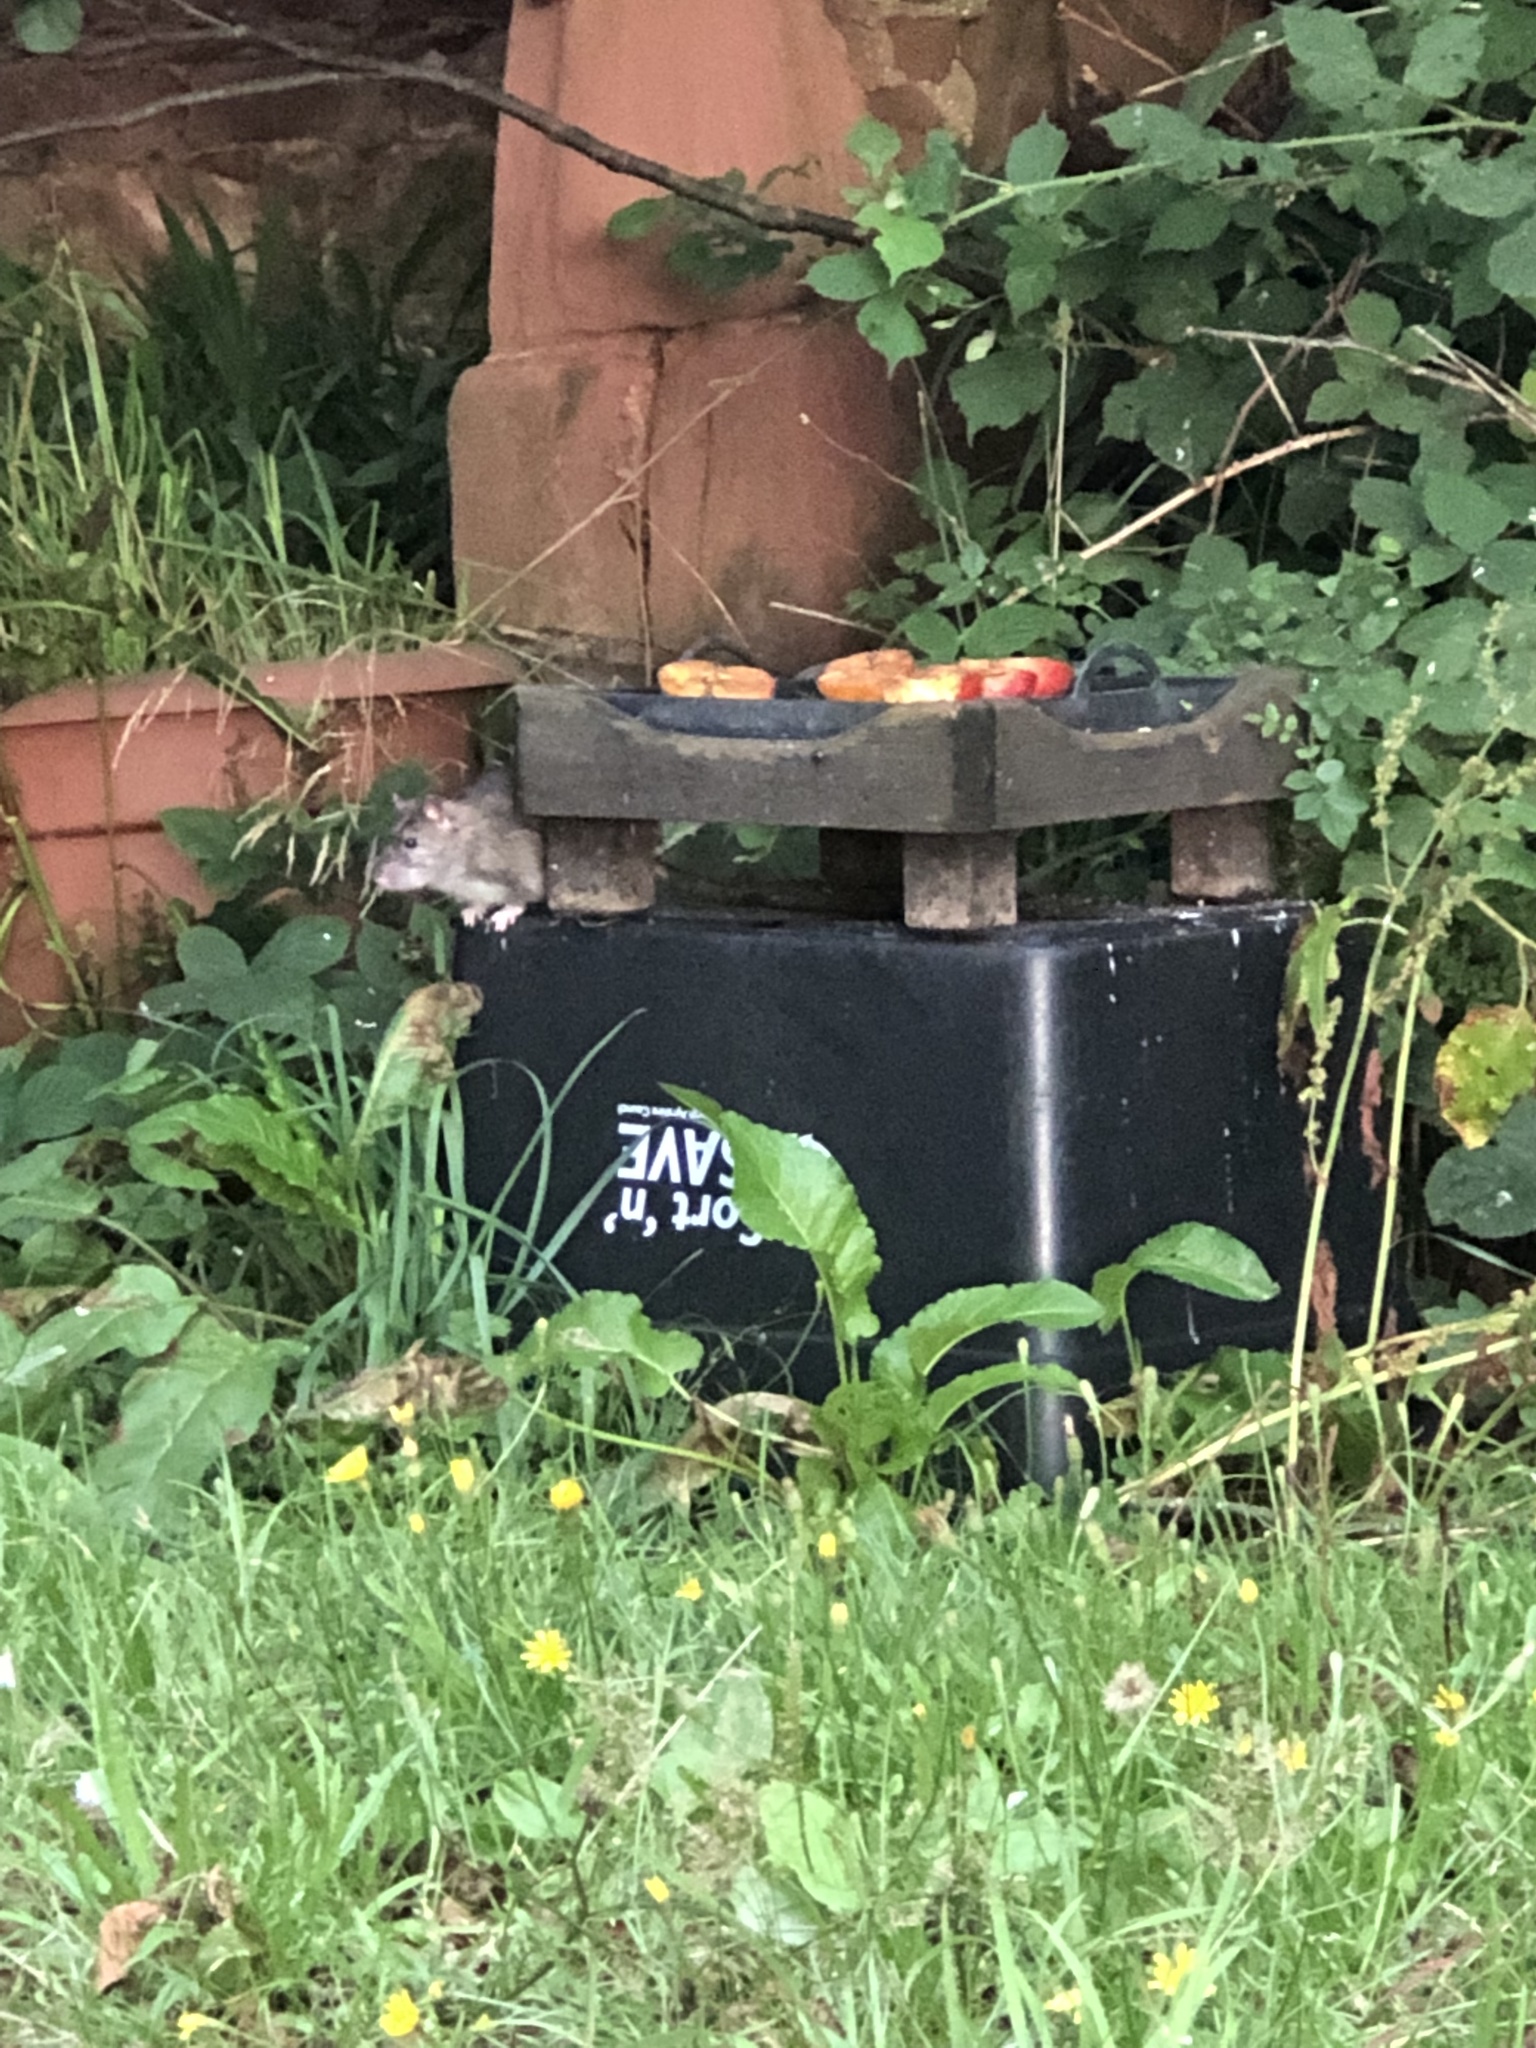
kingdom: Animalia
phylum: Chordata
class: Mammalia
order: Rodentia
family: Muridae
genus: Rattus
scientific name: Rattus norvegicus
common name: Brown rat
